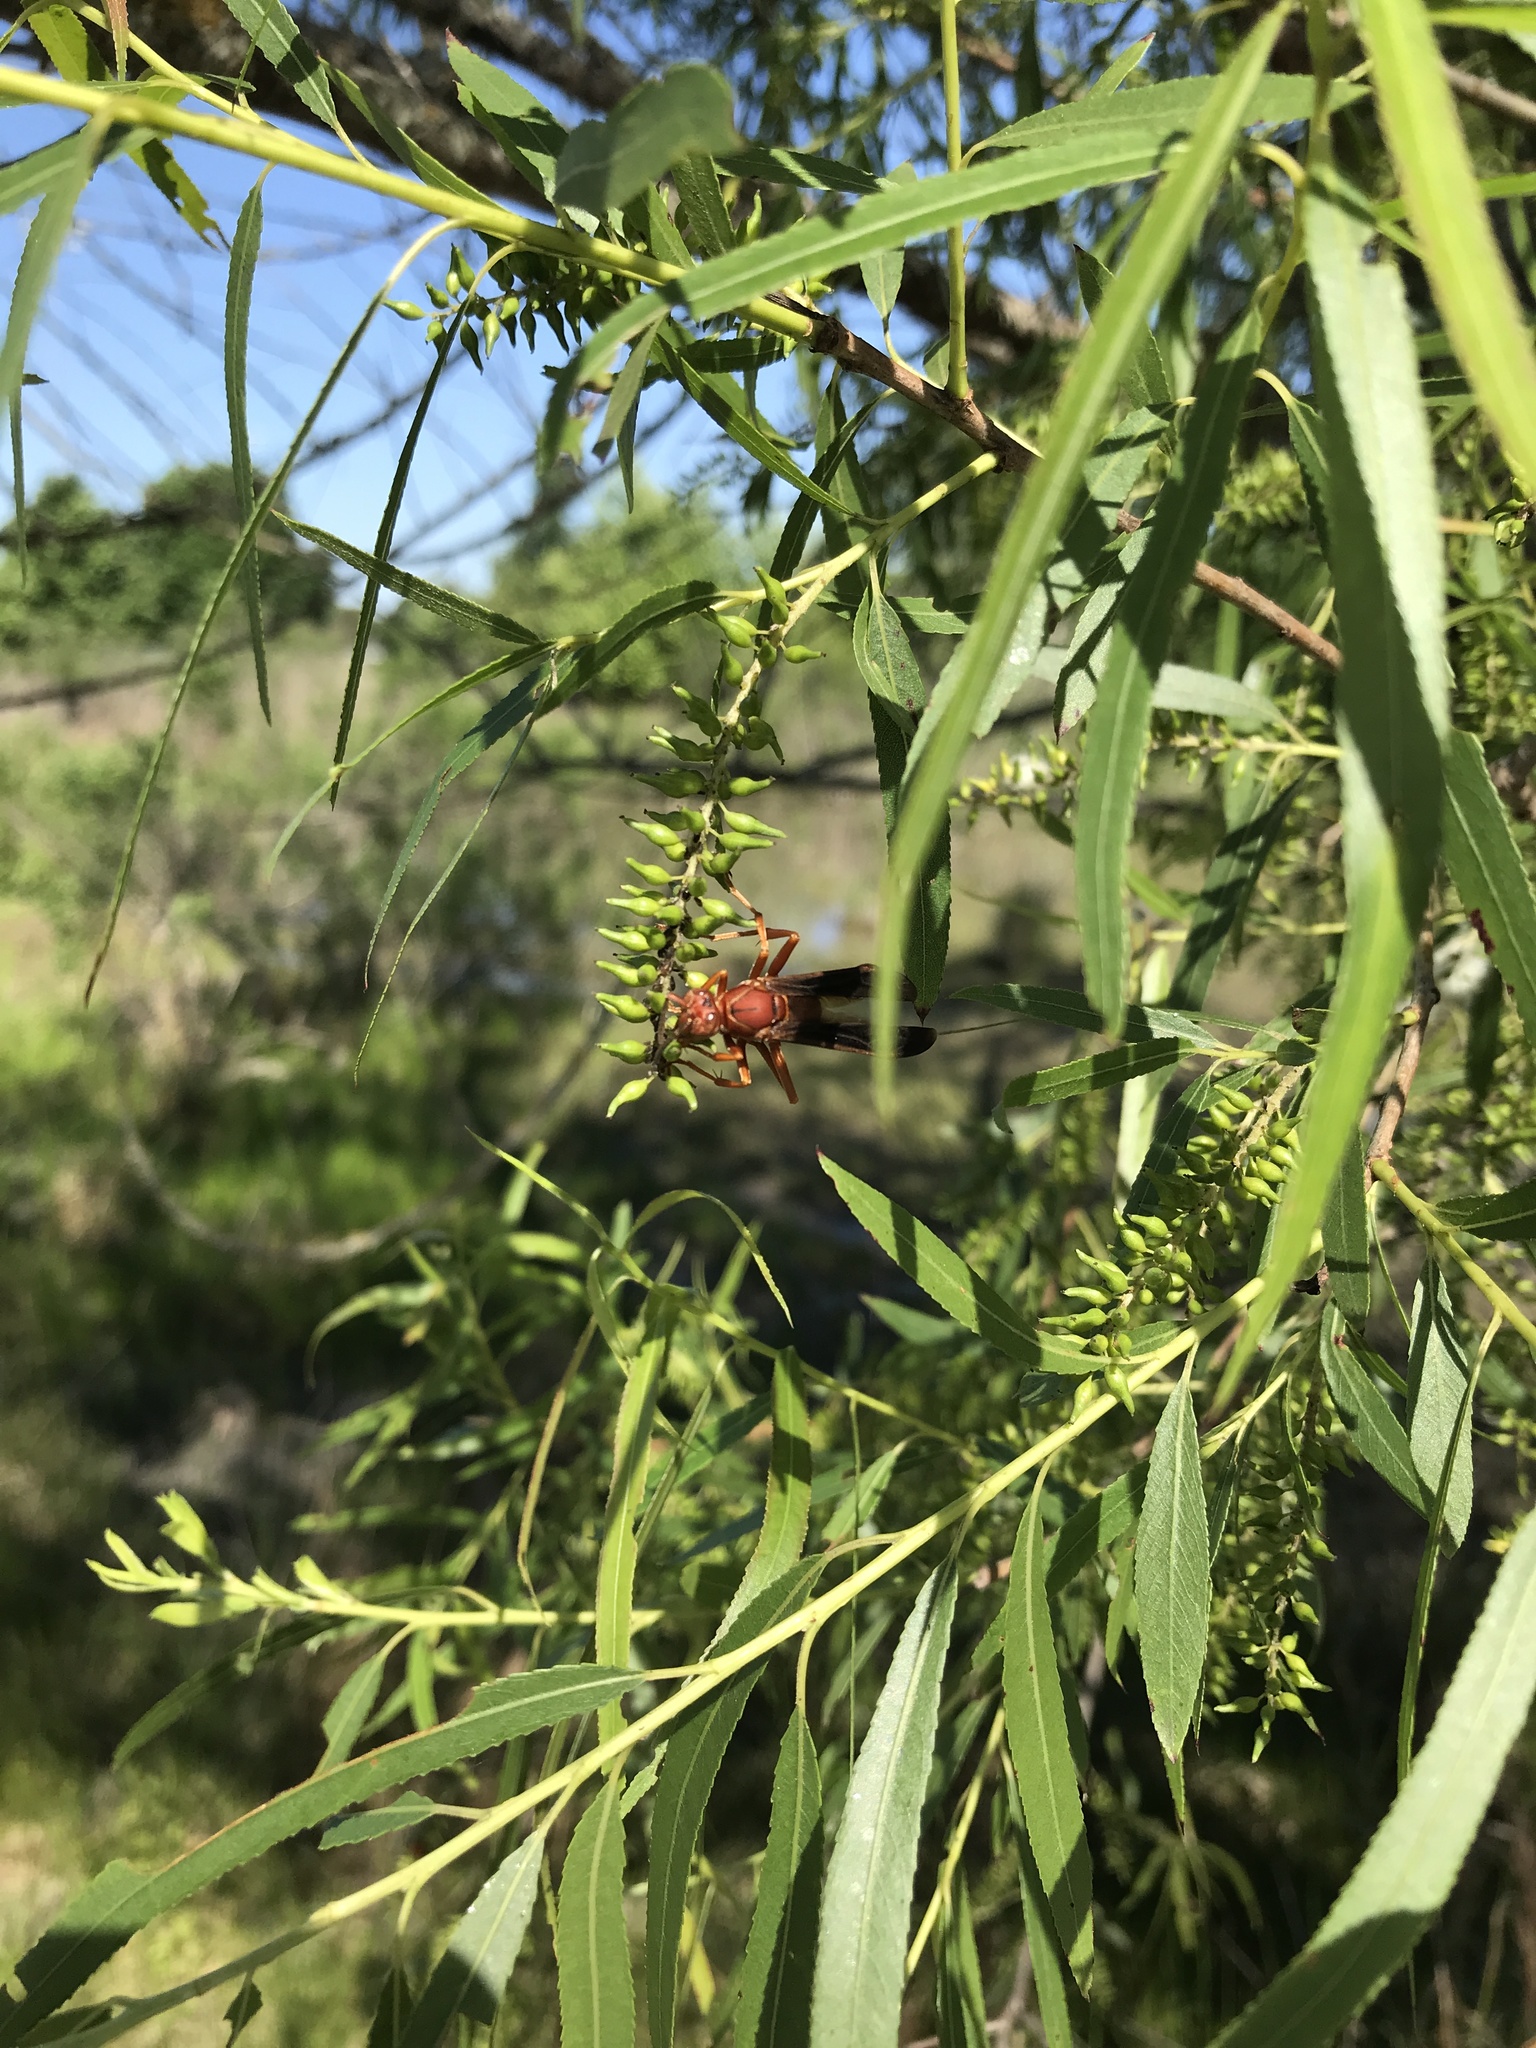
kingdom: Animalia
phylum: Arthropoda
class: Insecta
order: Hymenoptera
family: Vespidae
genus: Fuscopolistes
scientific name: Fuscopolistes
